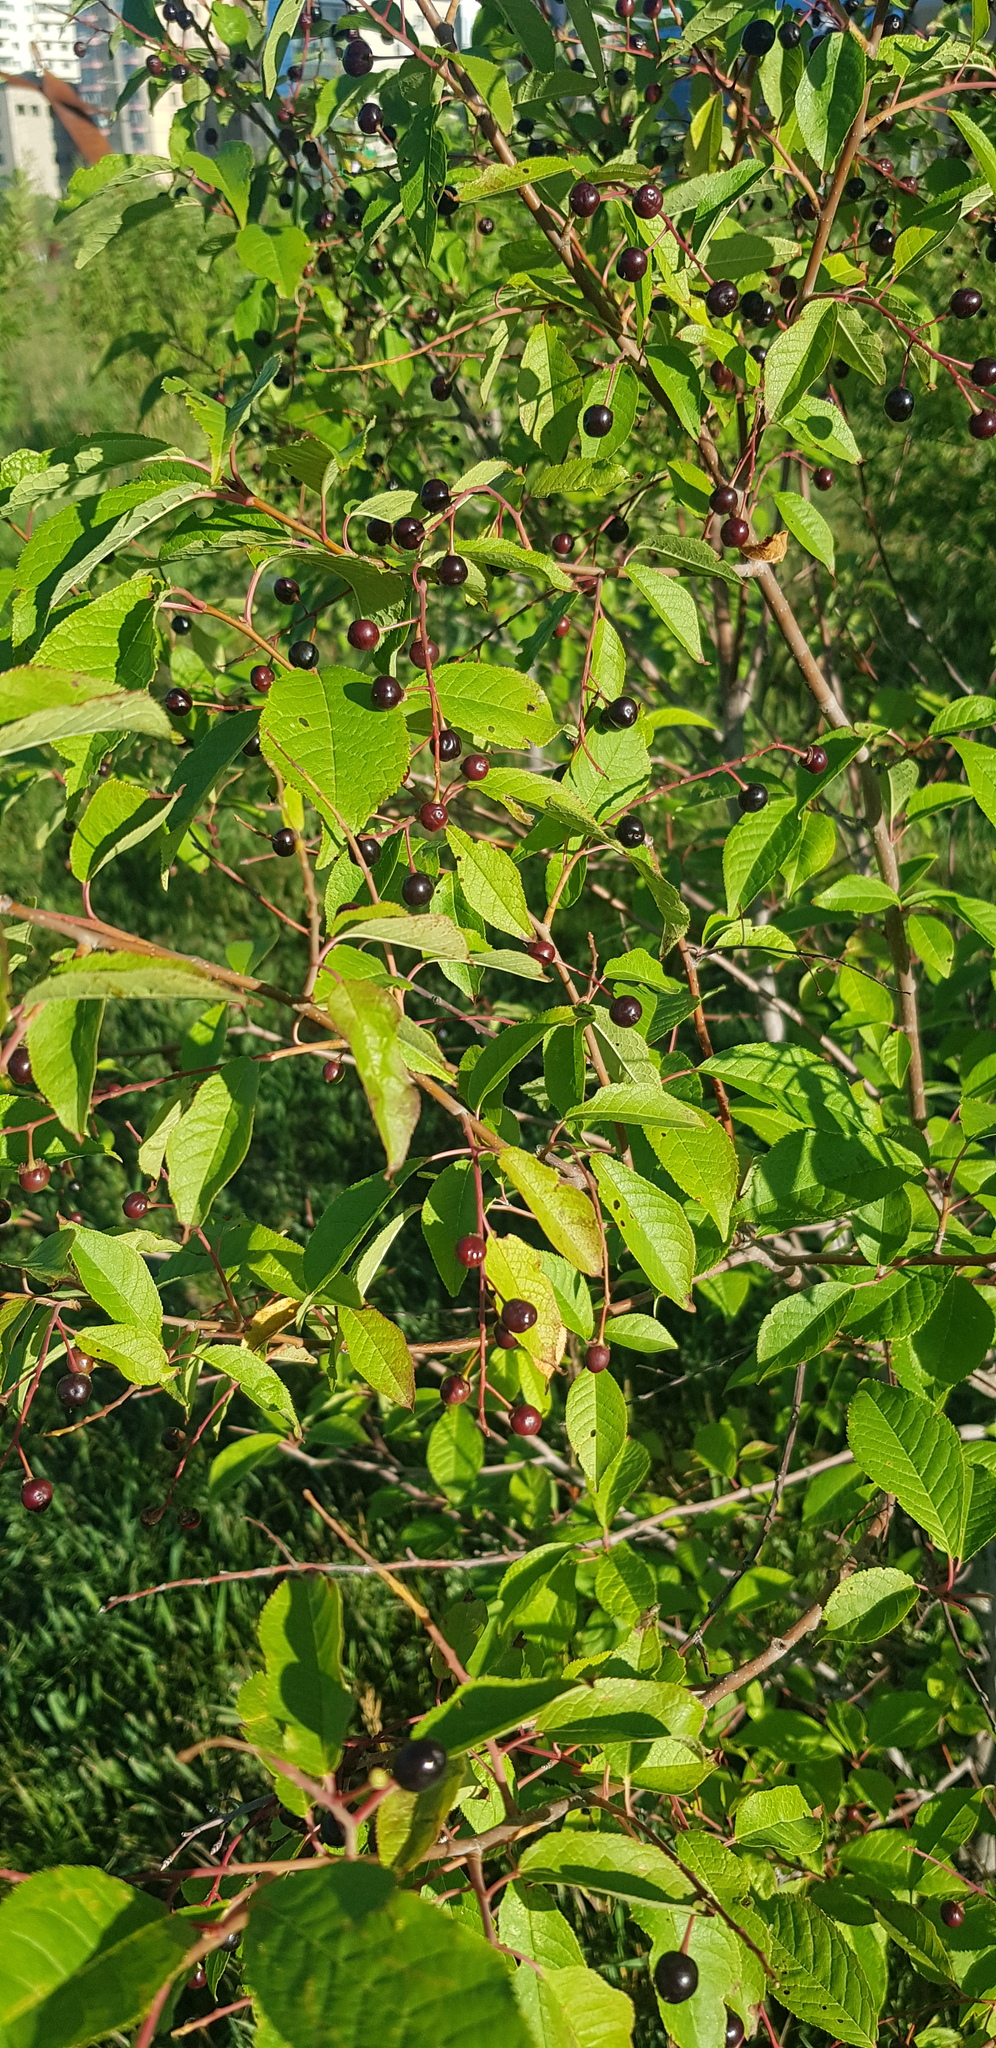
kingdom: Plantae
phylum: Tracheophyta
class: Magnoliopsida
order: Rosales
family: Rosaceae
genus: Prunus
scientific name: Prunus padus
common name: Bird cherry
